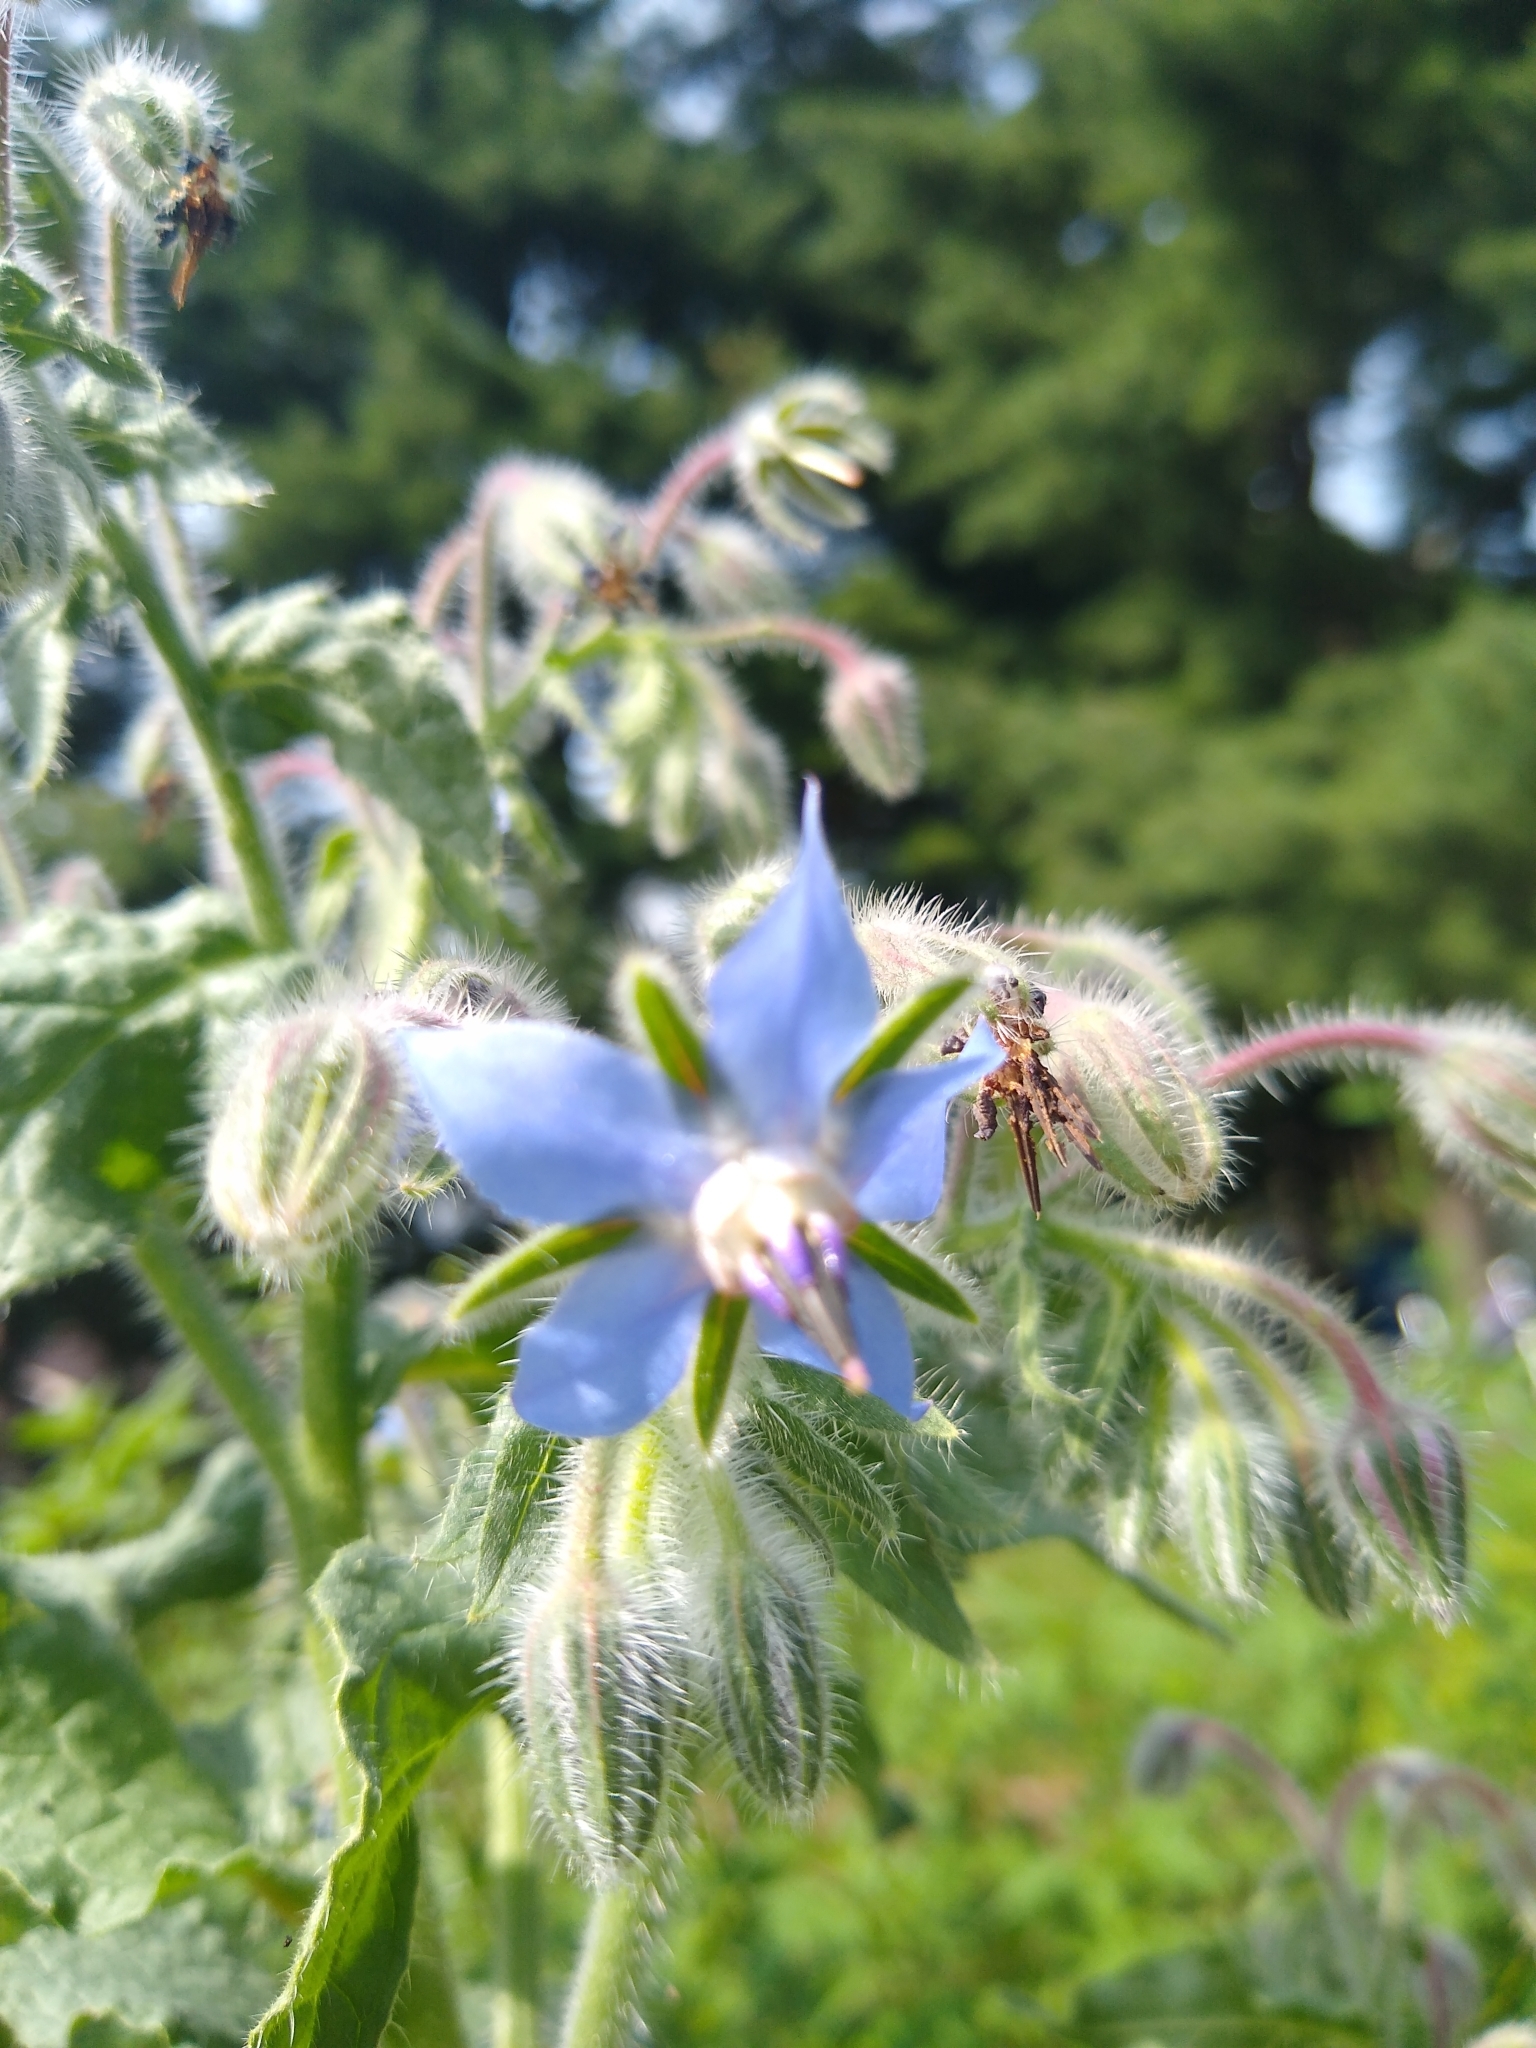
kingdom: Plantae
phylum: Tracheophyta
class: Magnoliopsida
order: Boraginales
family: Boraginaceae
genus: Borago
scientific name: Borago officinalis
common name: Borage
